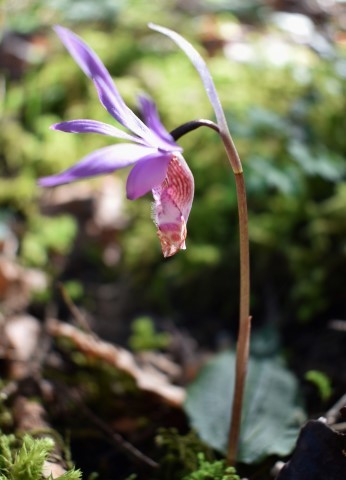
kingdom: Plantae
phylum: Tracheophyta
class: Liliopsida
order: Asparagales
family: Orchidaceae
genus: Calypso
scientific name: Calypso bulbosa
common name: Calypso
